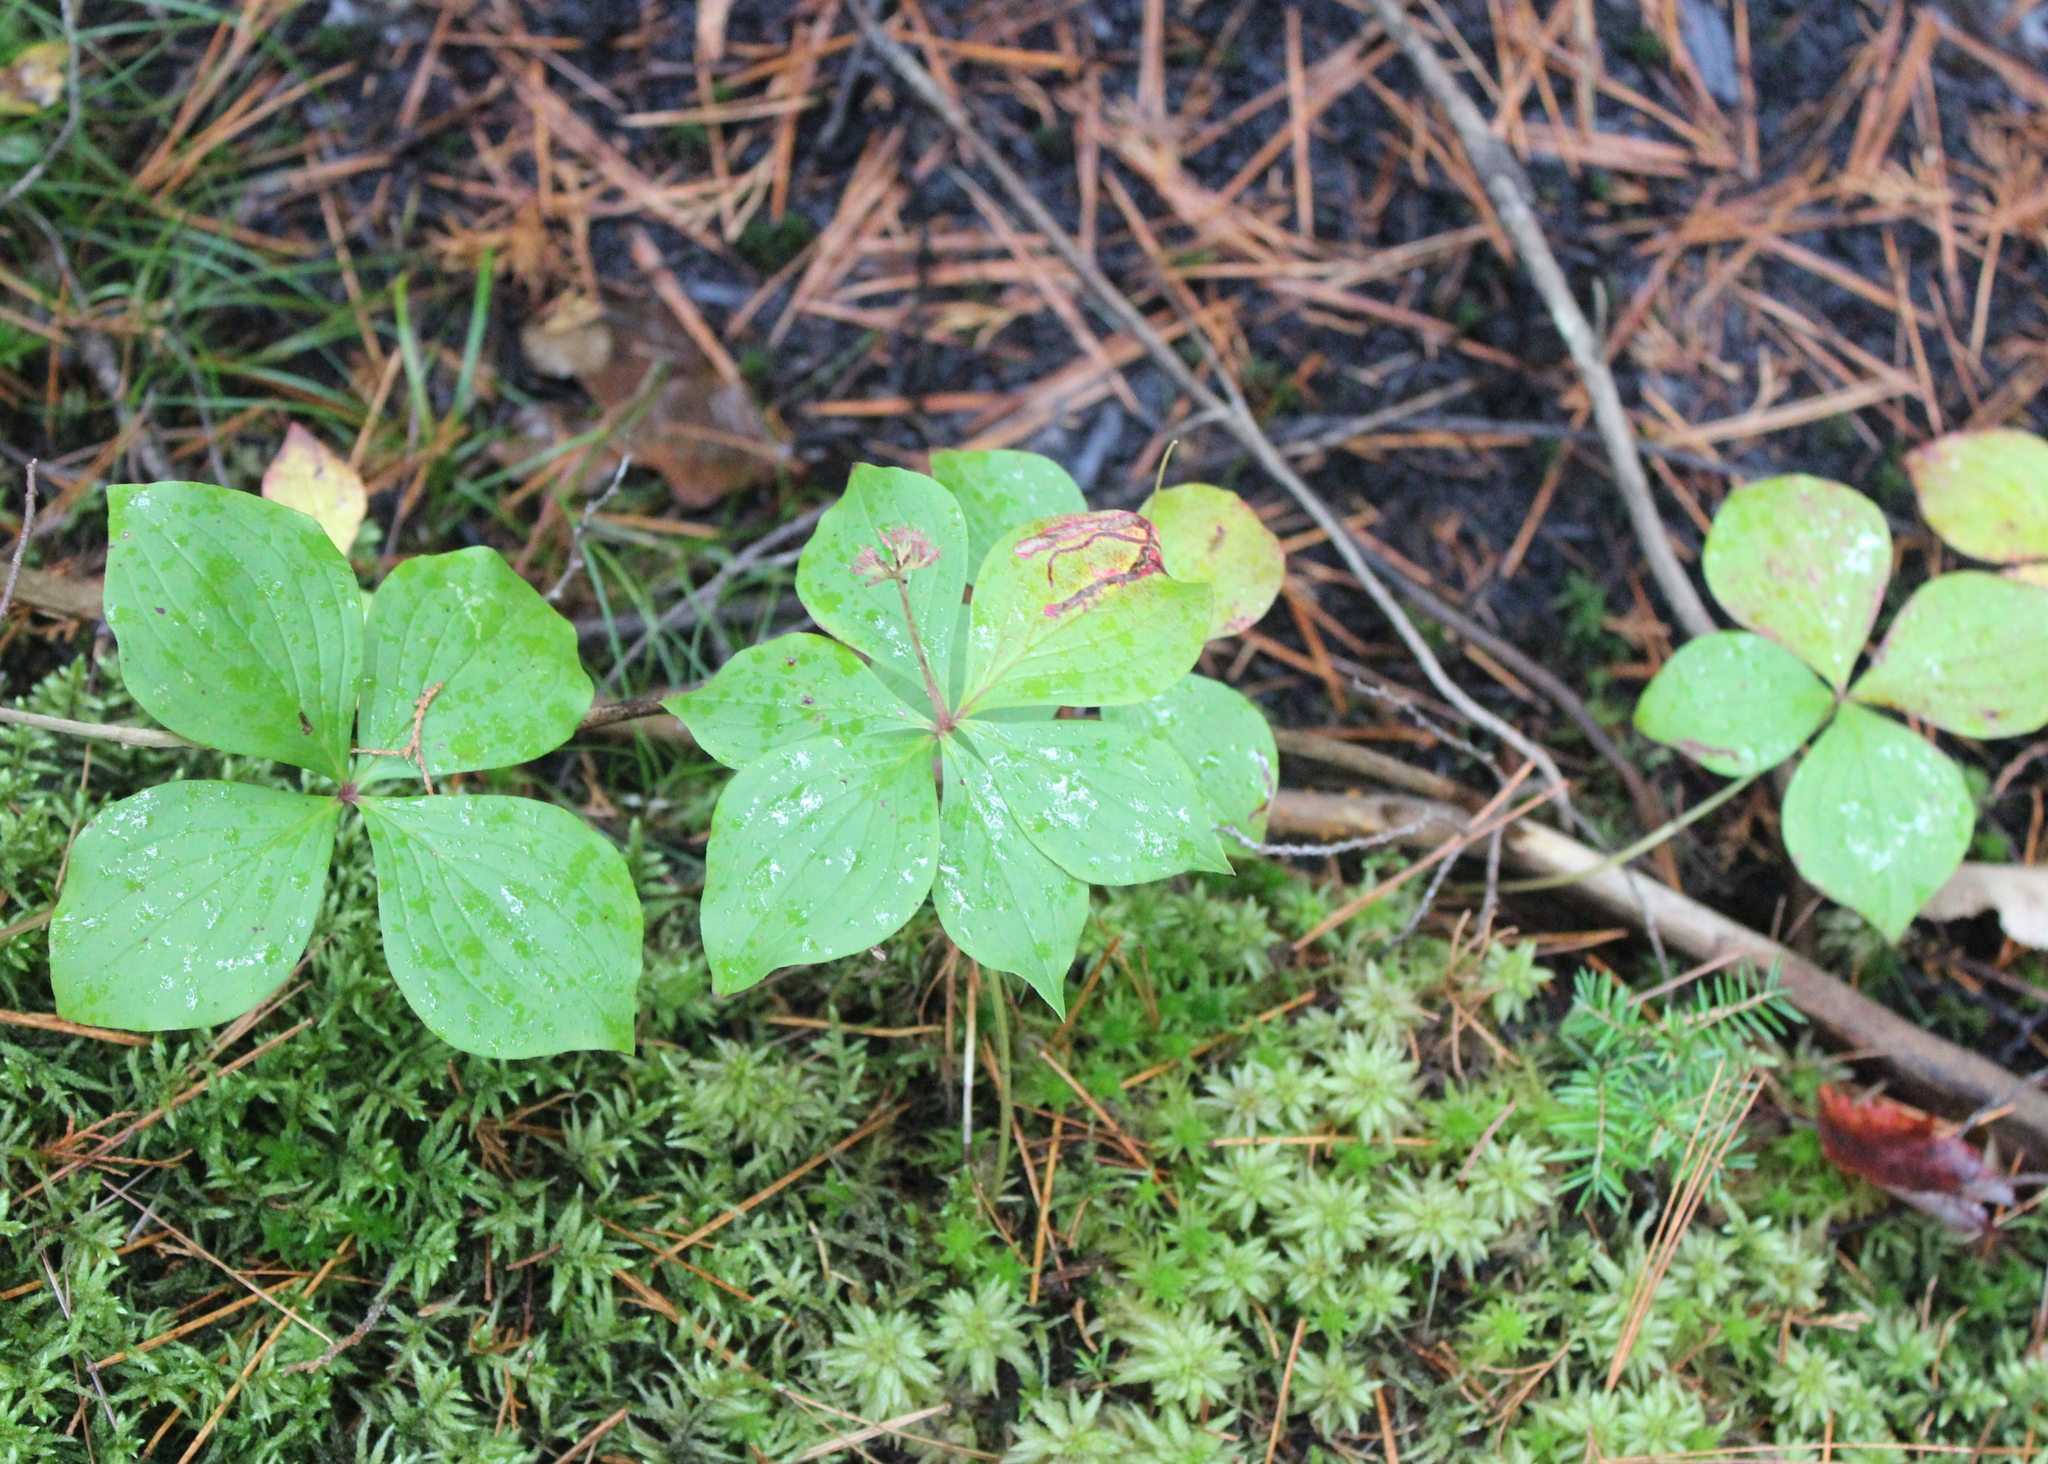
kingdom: Plantae
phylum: Tracheophyta
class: Magnoliopsida
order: Cornales
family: Cornaceae
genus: Cornus
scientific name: Cornus canadensis
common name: Creeping dogwood
